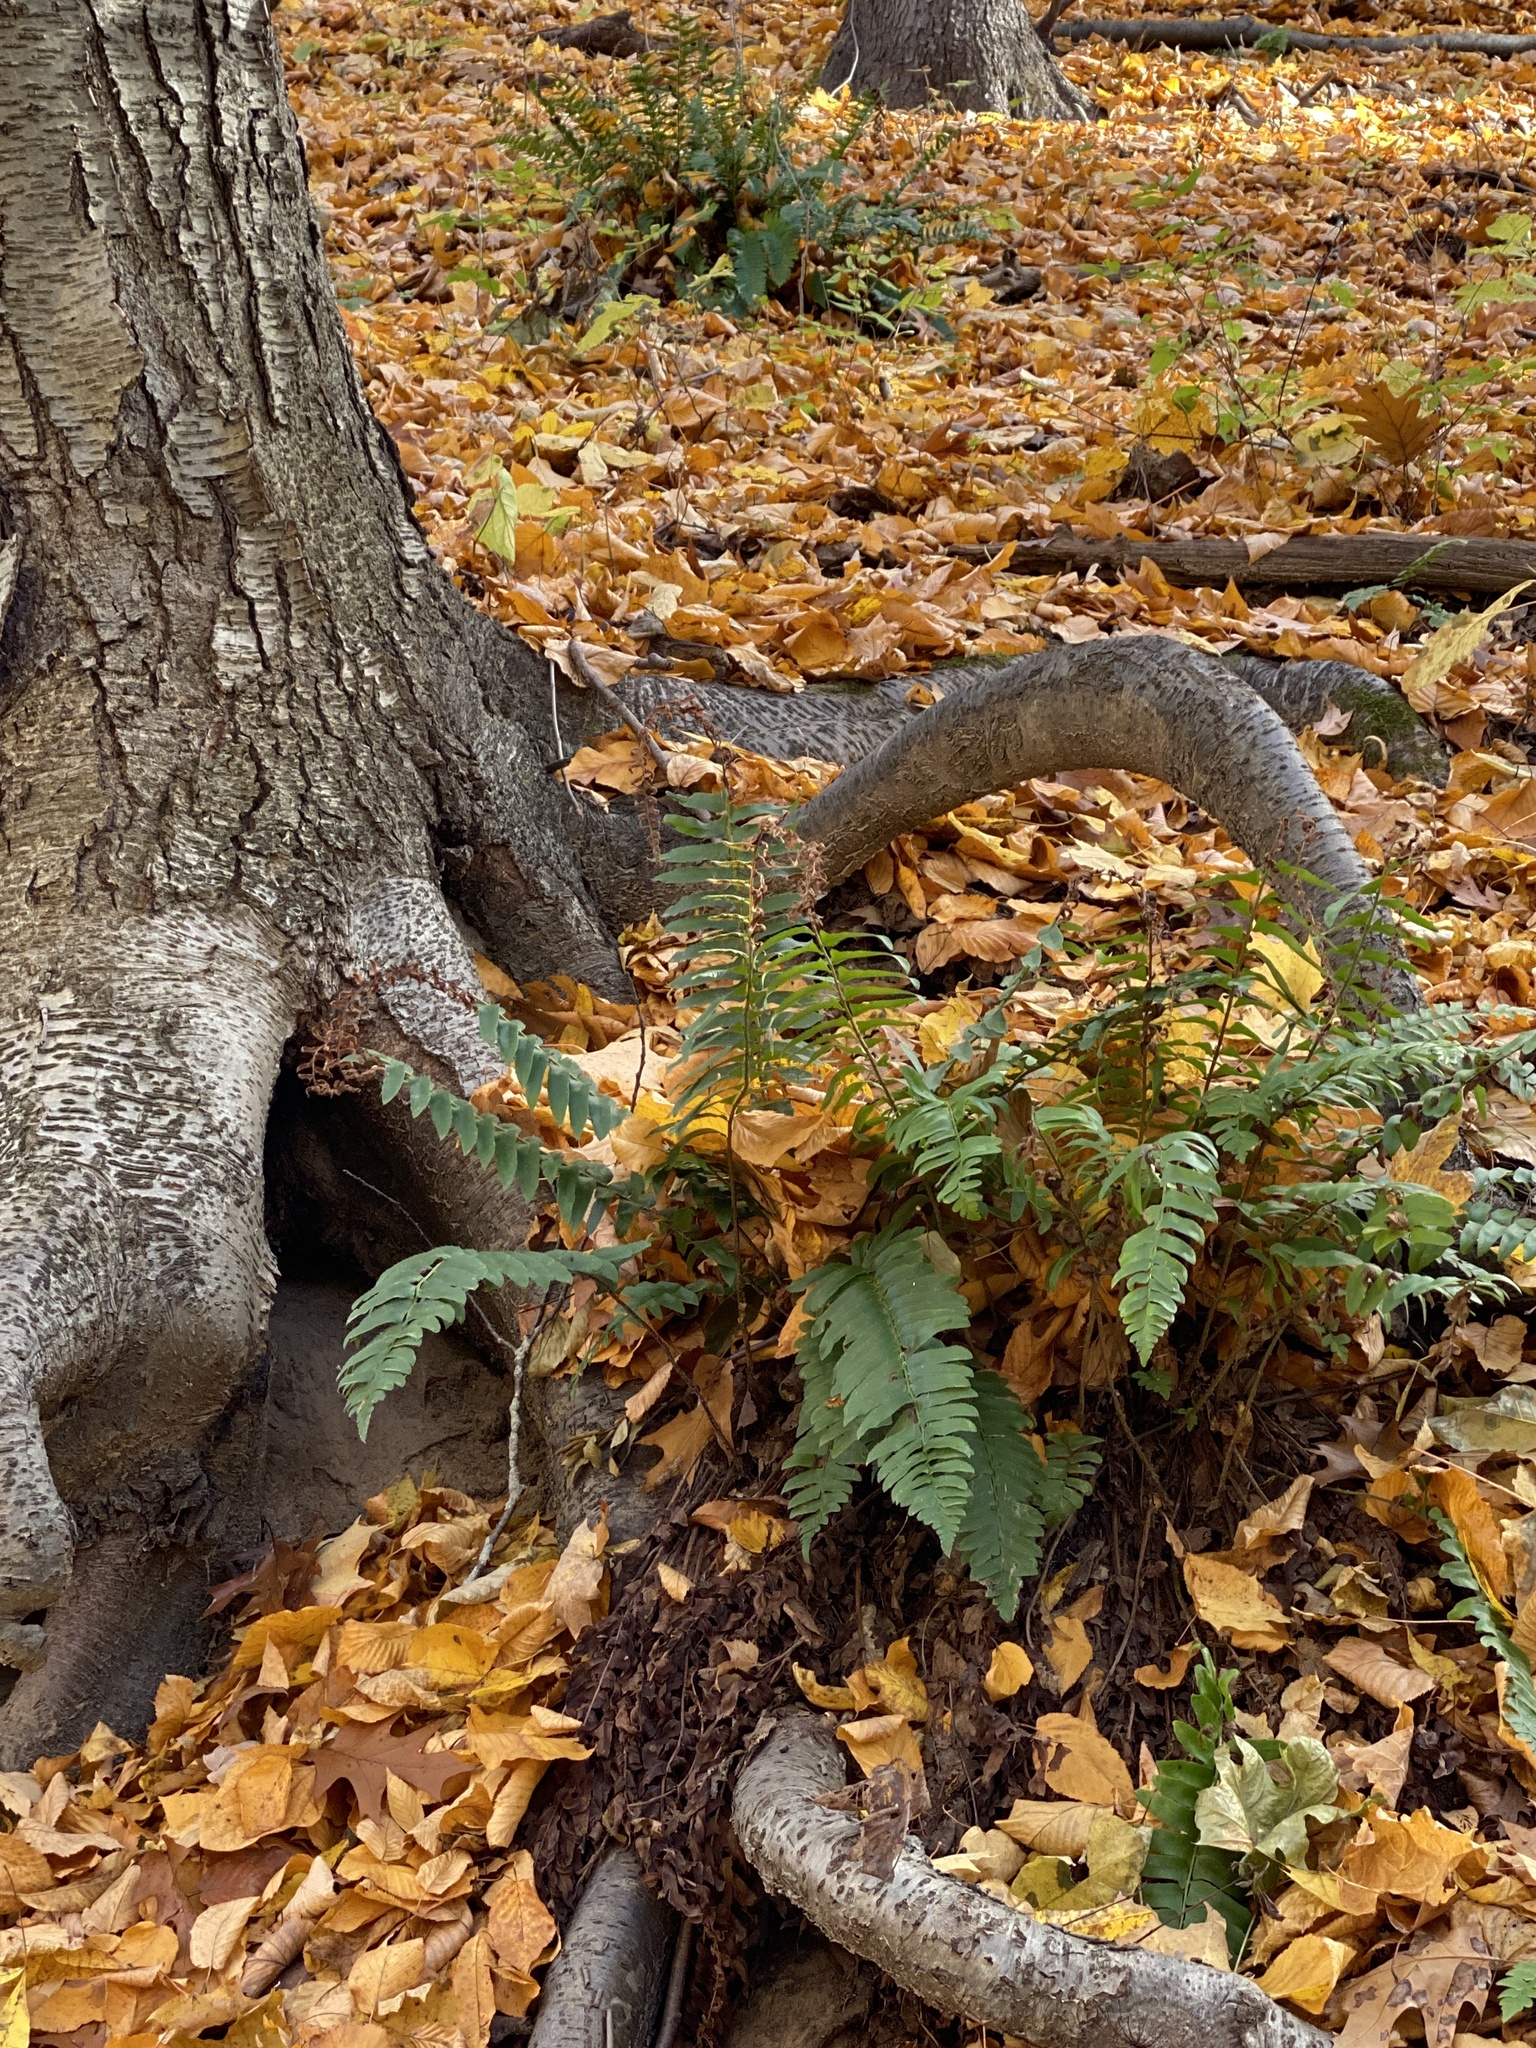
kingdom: Plantae
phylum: Tracheophyta
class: Polypodiopsida
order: Polypodiales
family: Dryopteridaceae
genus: Polystichum
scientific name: Polystichum acrostichoides
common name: Christmas fern
